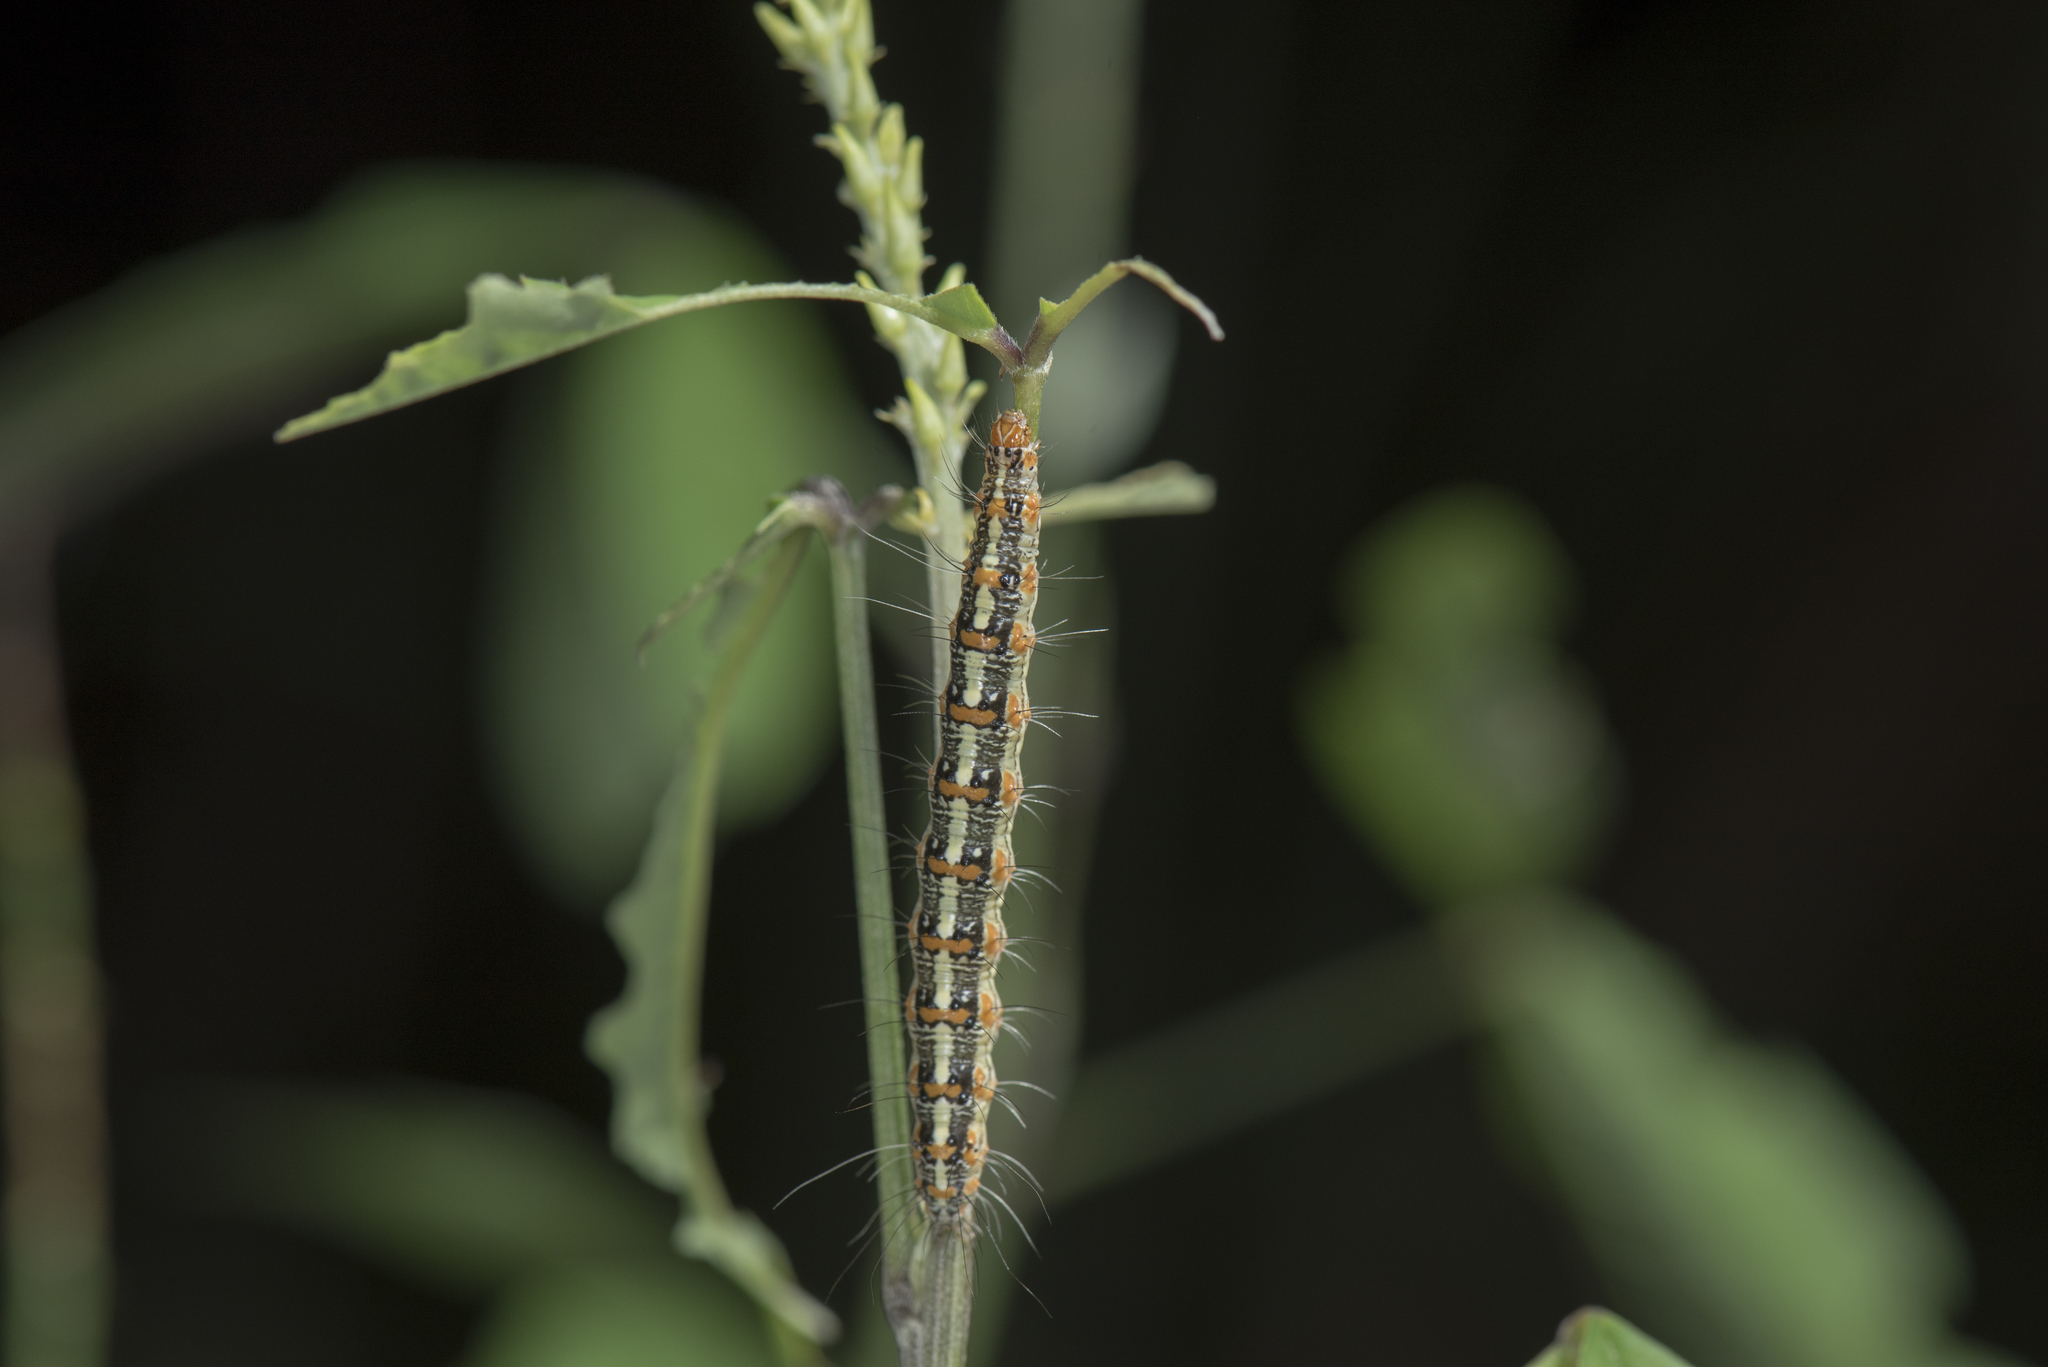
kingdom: Animalia
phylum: Arthropoda
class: Insecta
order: Lepidoptera
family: Erebidae
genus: Utetheisa
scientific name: Utetheisa lotrix
